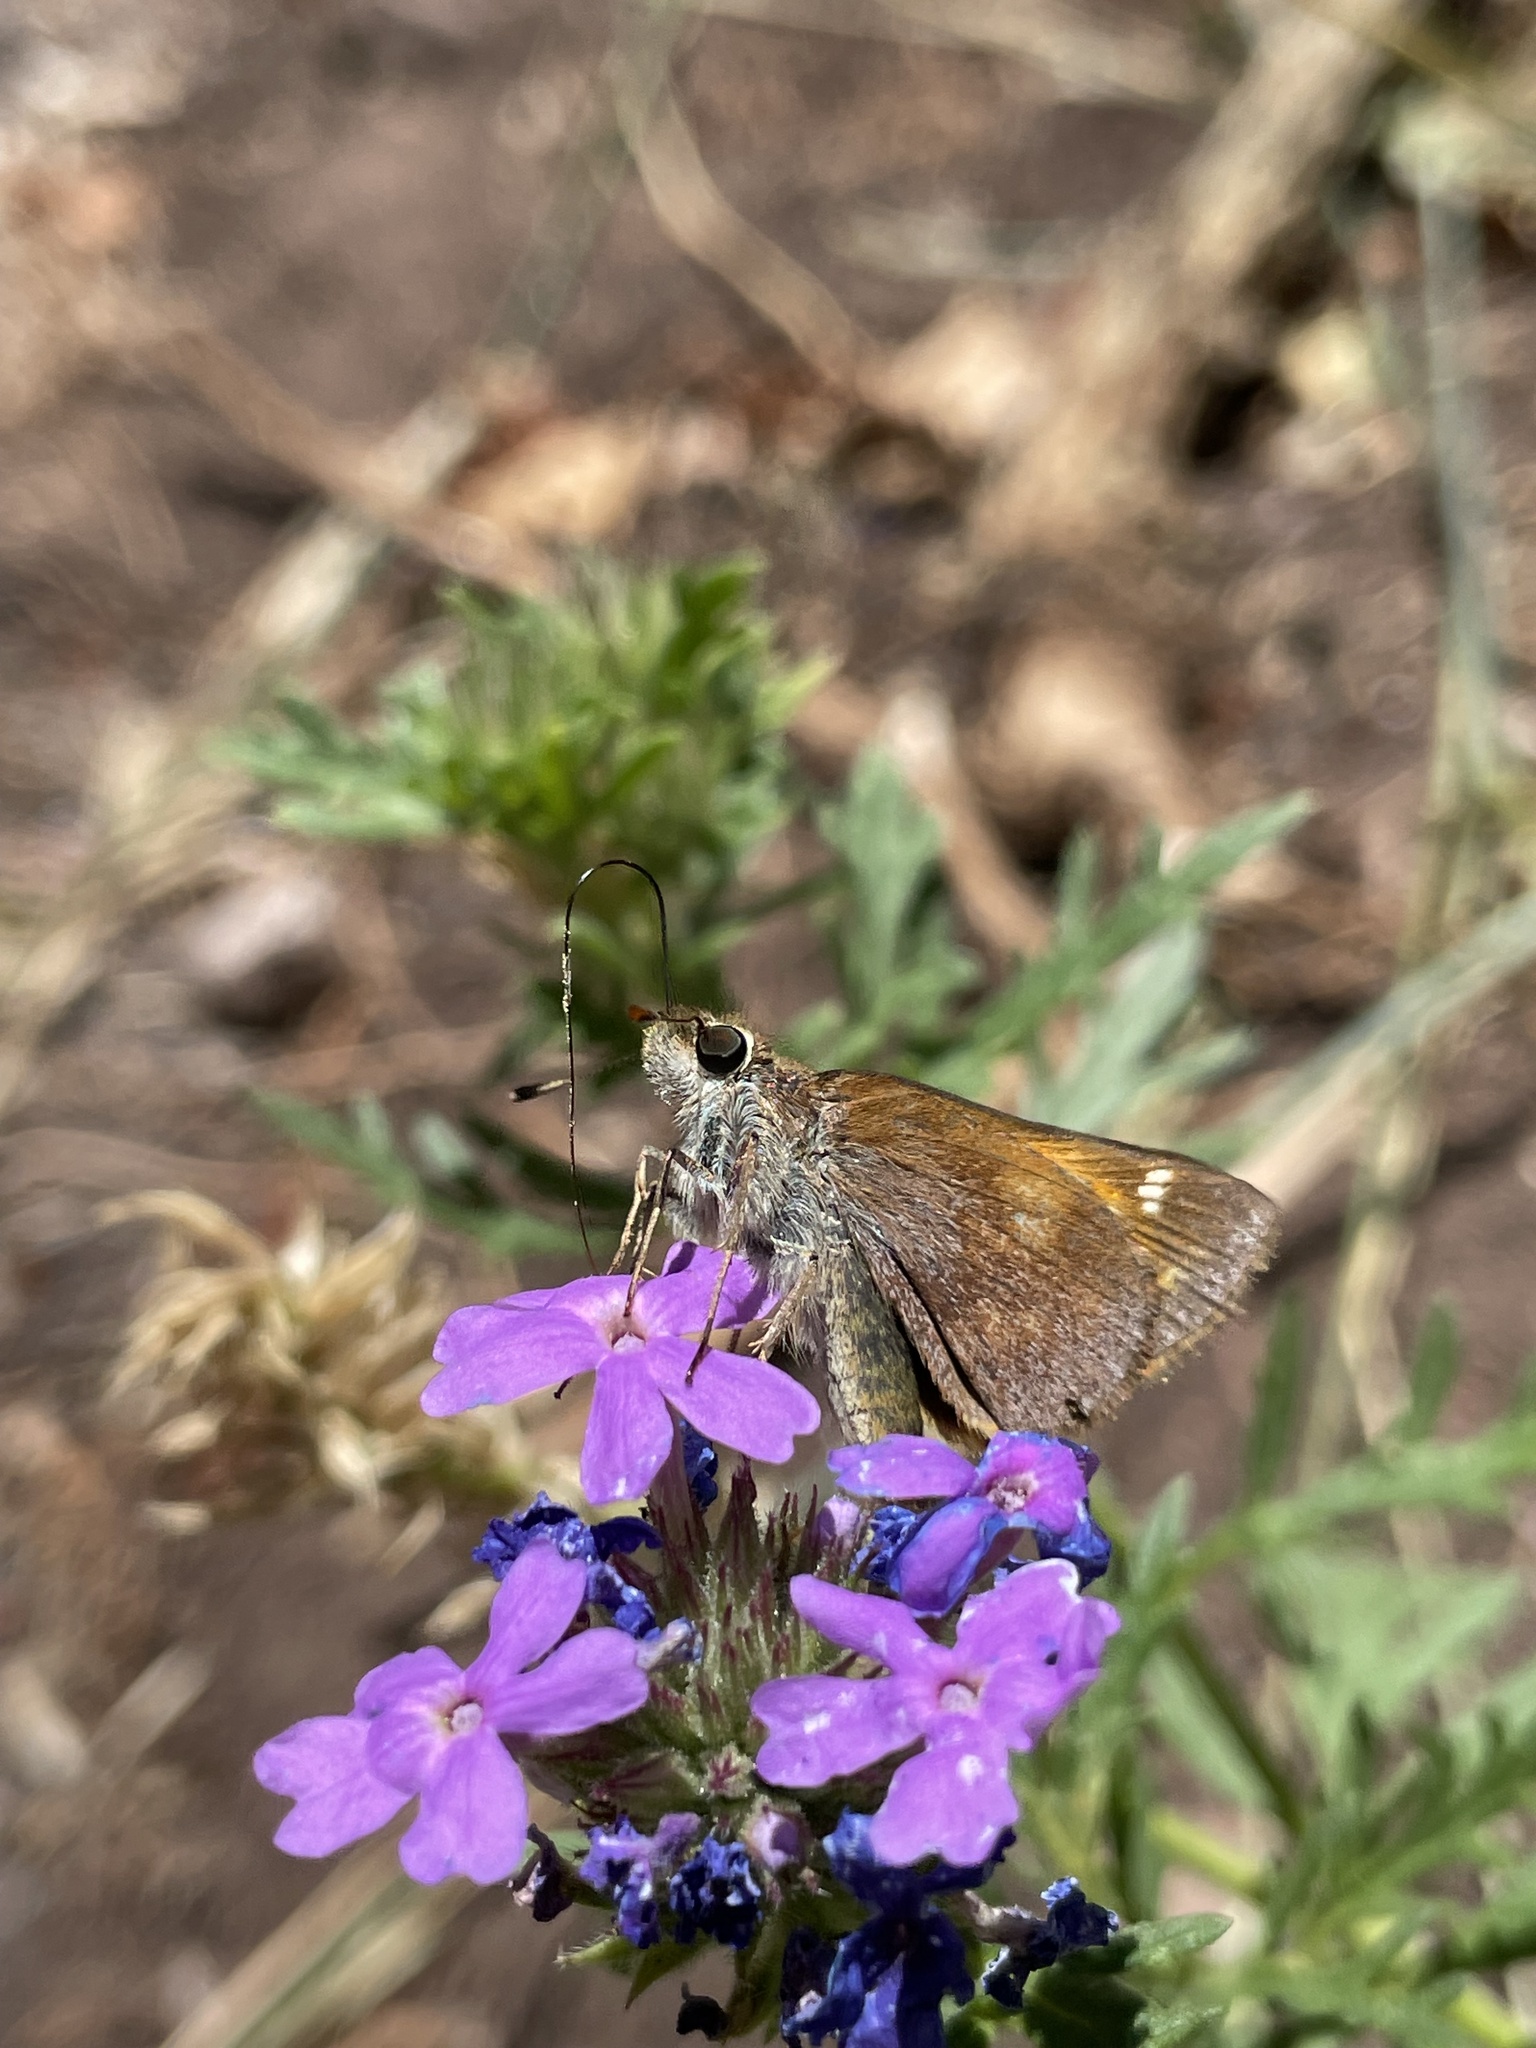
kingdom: Animalia
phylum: Arthropoda
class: Insecta
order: Lepidoptera
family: Hesperiidae
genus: Lon
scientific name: Lon taxiles
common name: Taxiles skipper
